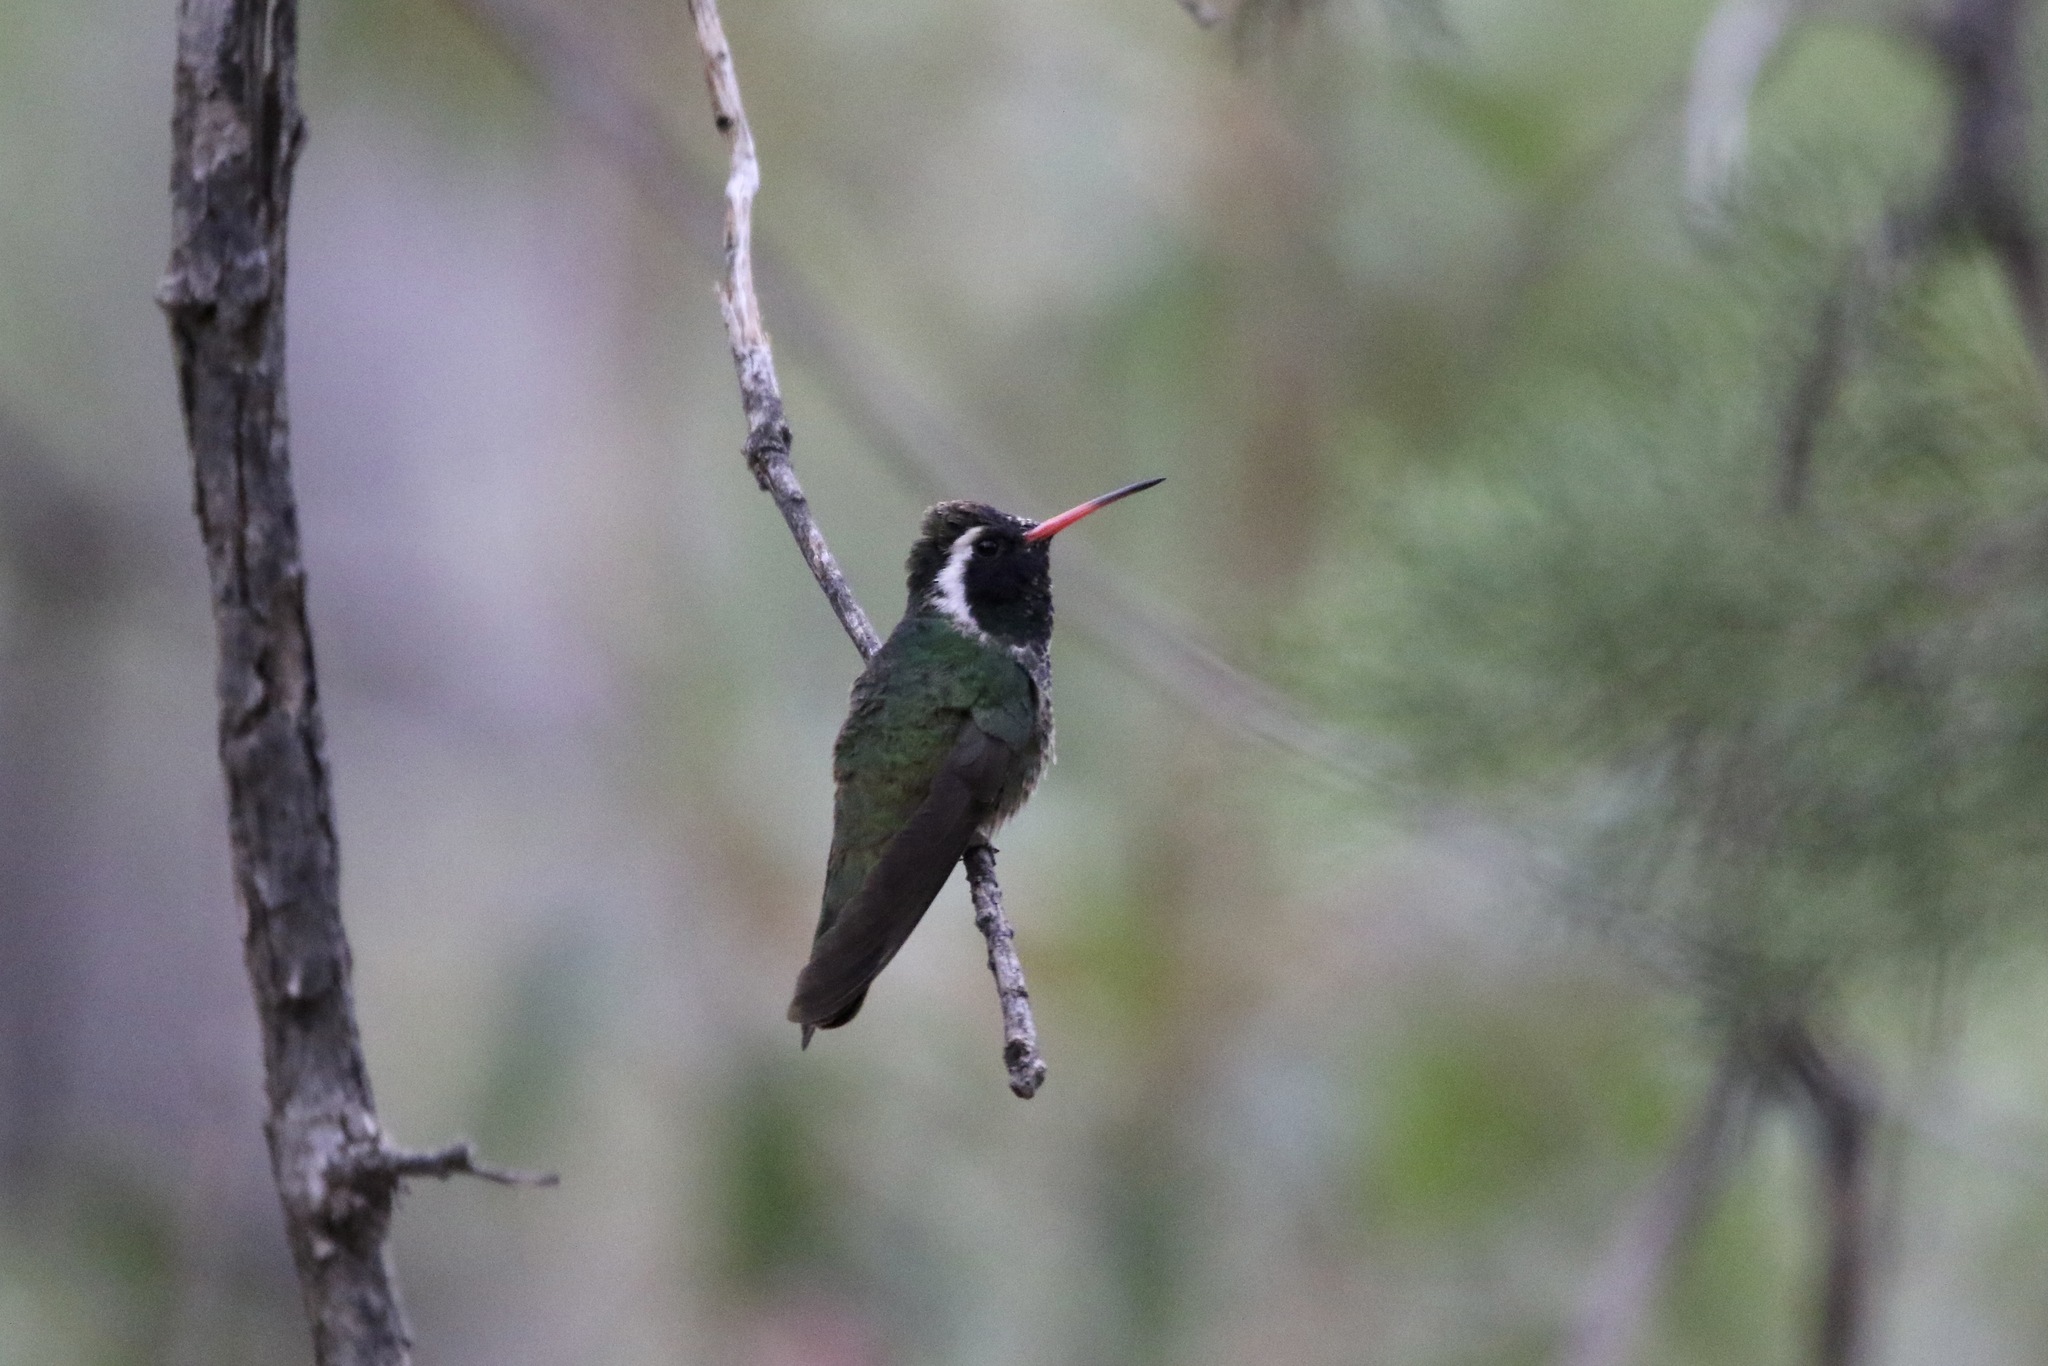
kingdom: Animalia
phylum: Chordata
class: Aves
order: Apodiformes
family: Trochilidae
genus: Basilinna
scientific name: Basilinna leucotis
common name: White-eared hummingbird
